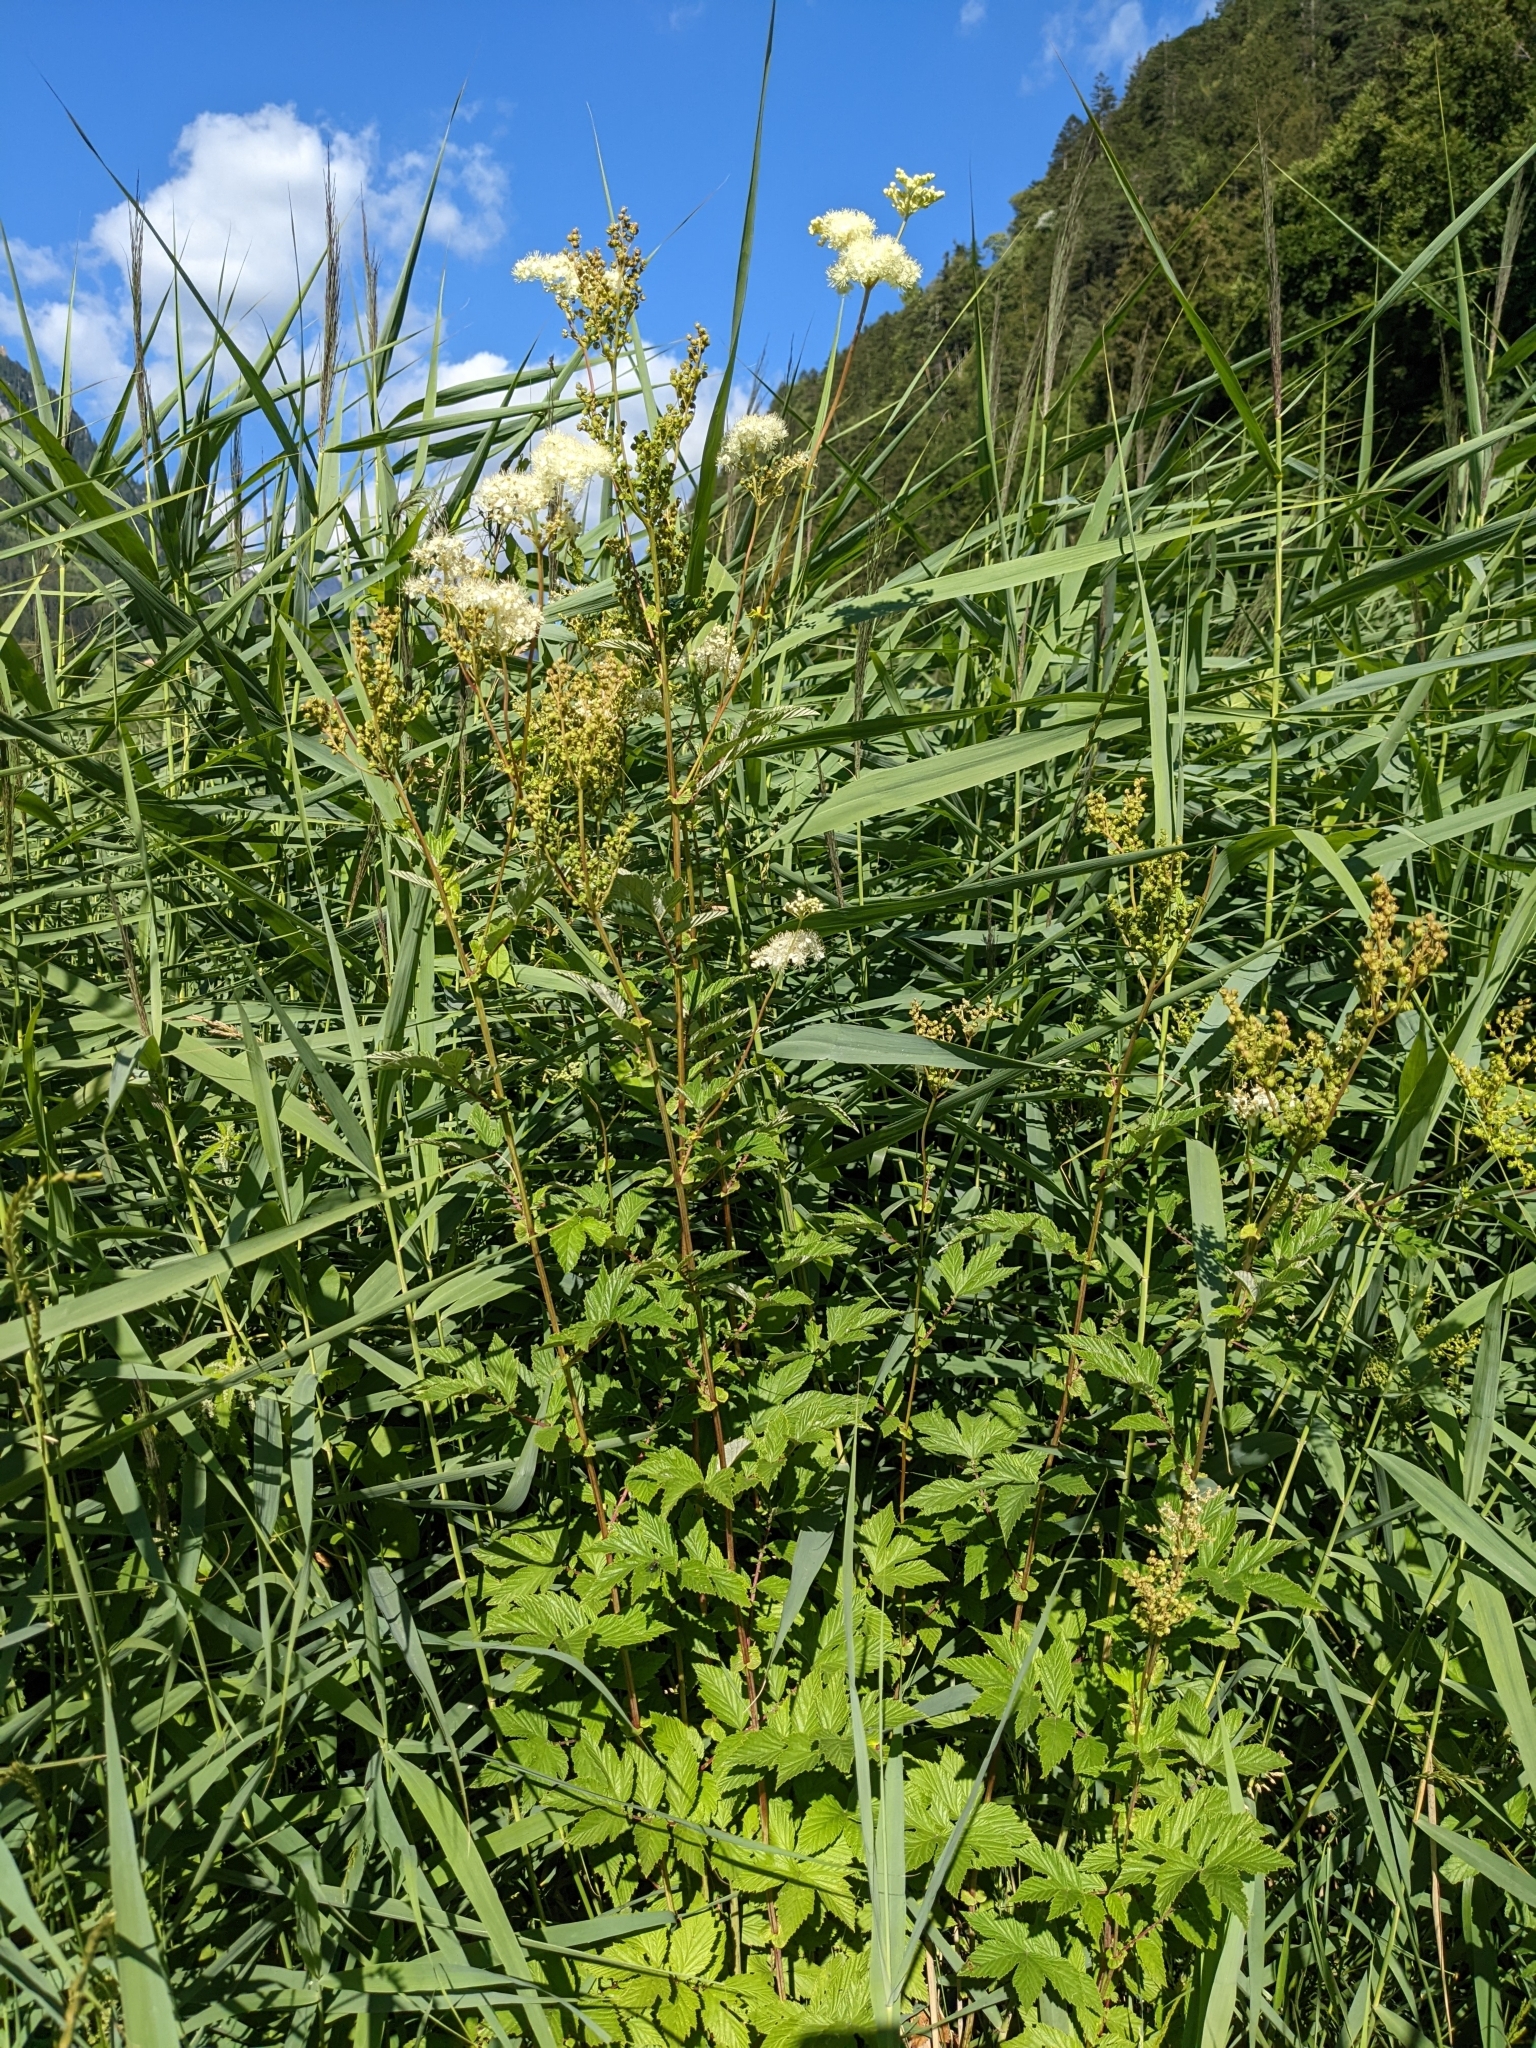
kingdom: Plantae
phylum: Tracheophyta
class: Magnoliopsida
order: Rosales
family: Rosaceae
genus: Filipendula
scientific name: Filipendula ulmaria
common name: Meadowsweet
